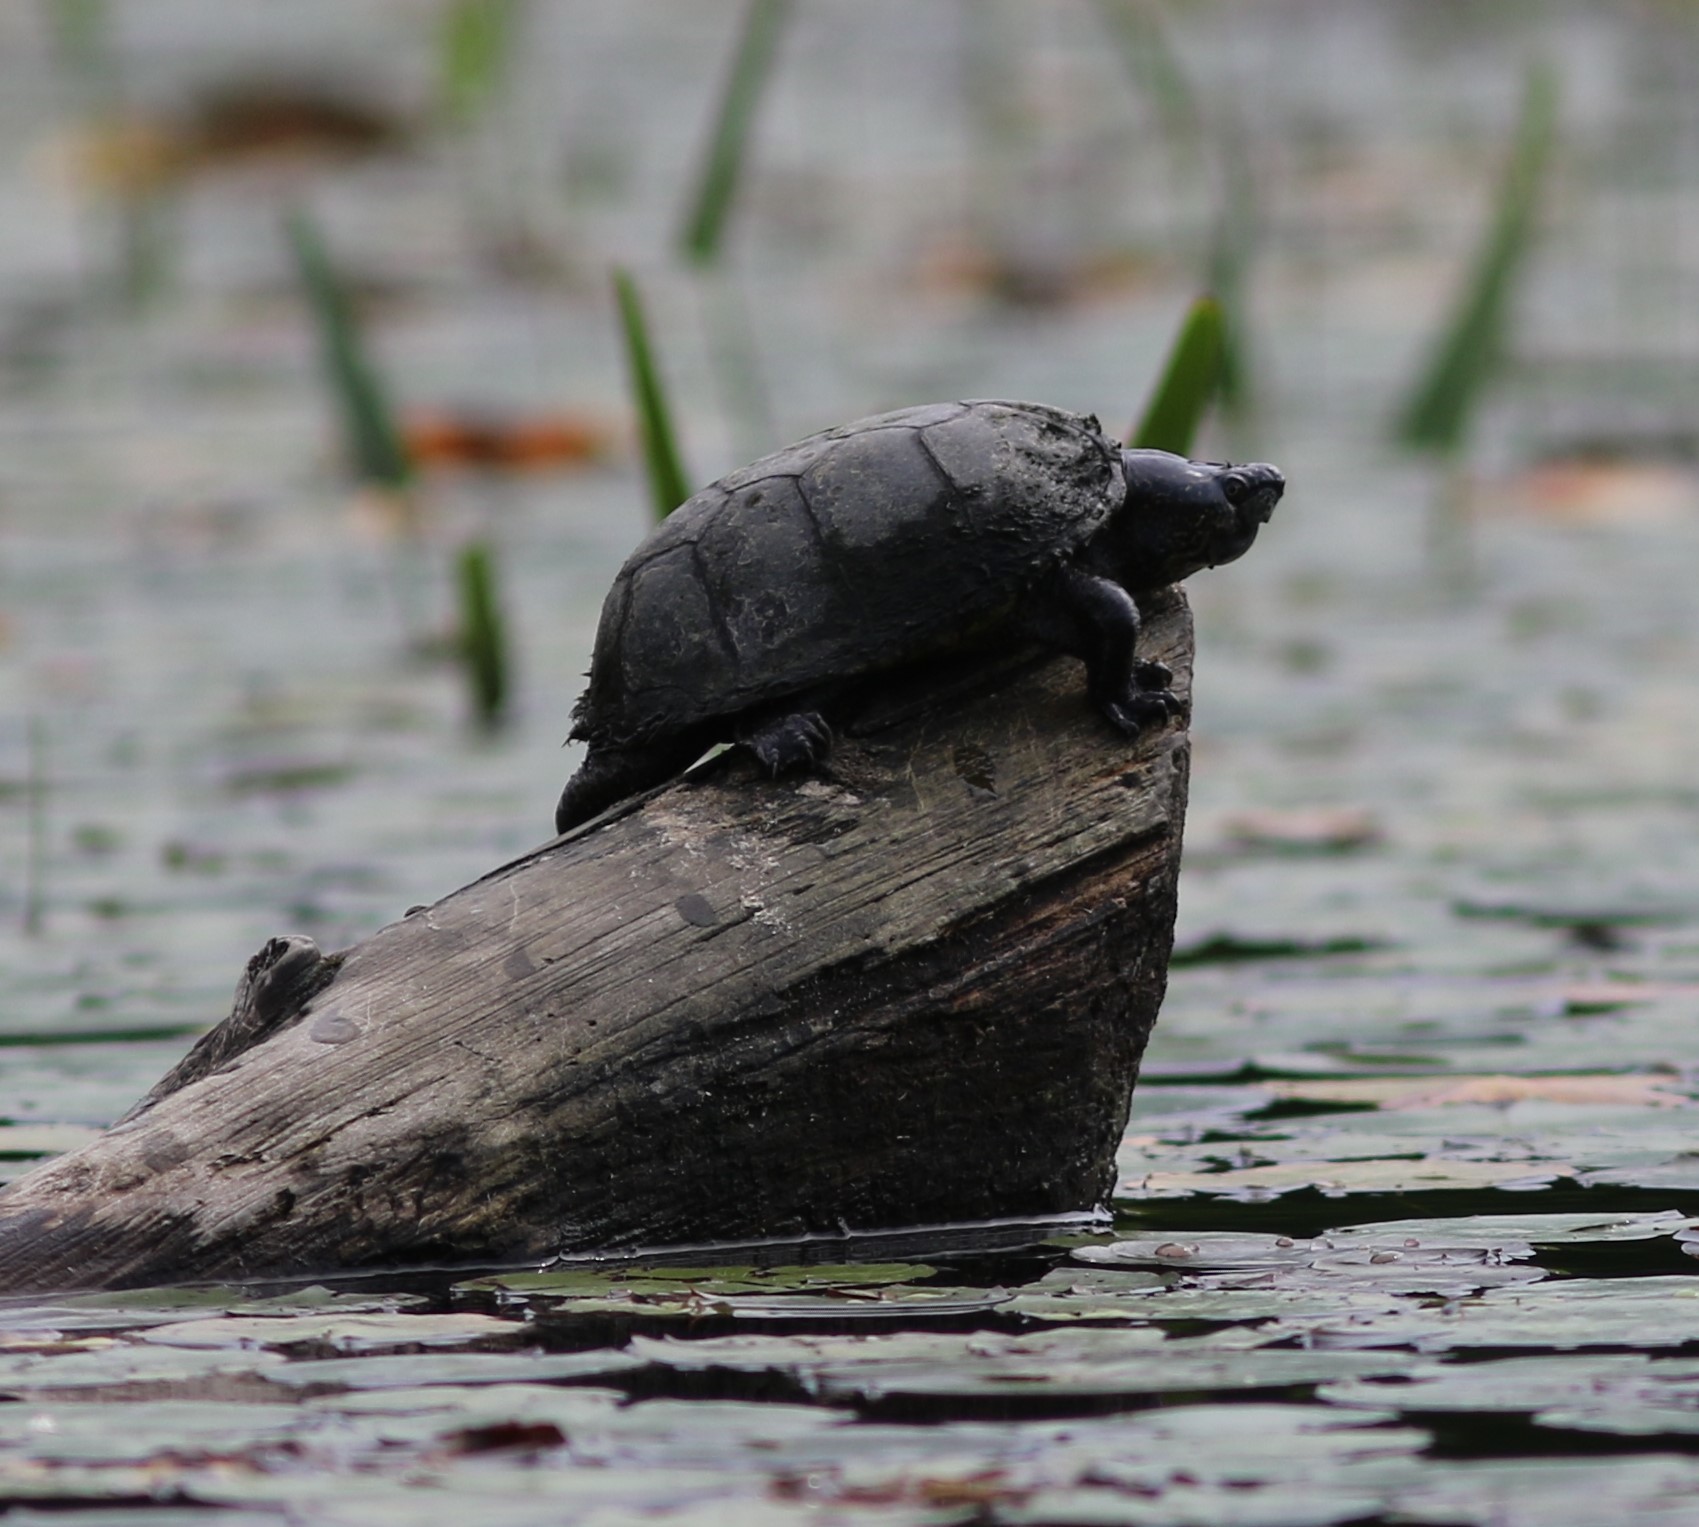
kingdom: Animalia
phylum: Chordata
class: Testudines
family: Kinosternidae
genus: Sternotherus
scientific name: Sternotherus odoratus
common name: Common musk turtle
